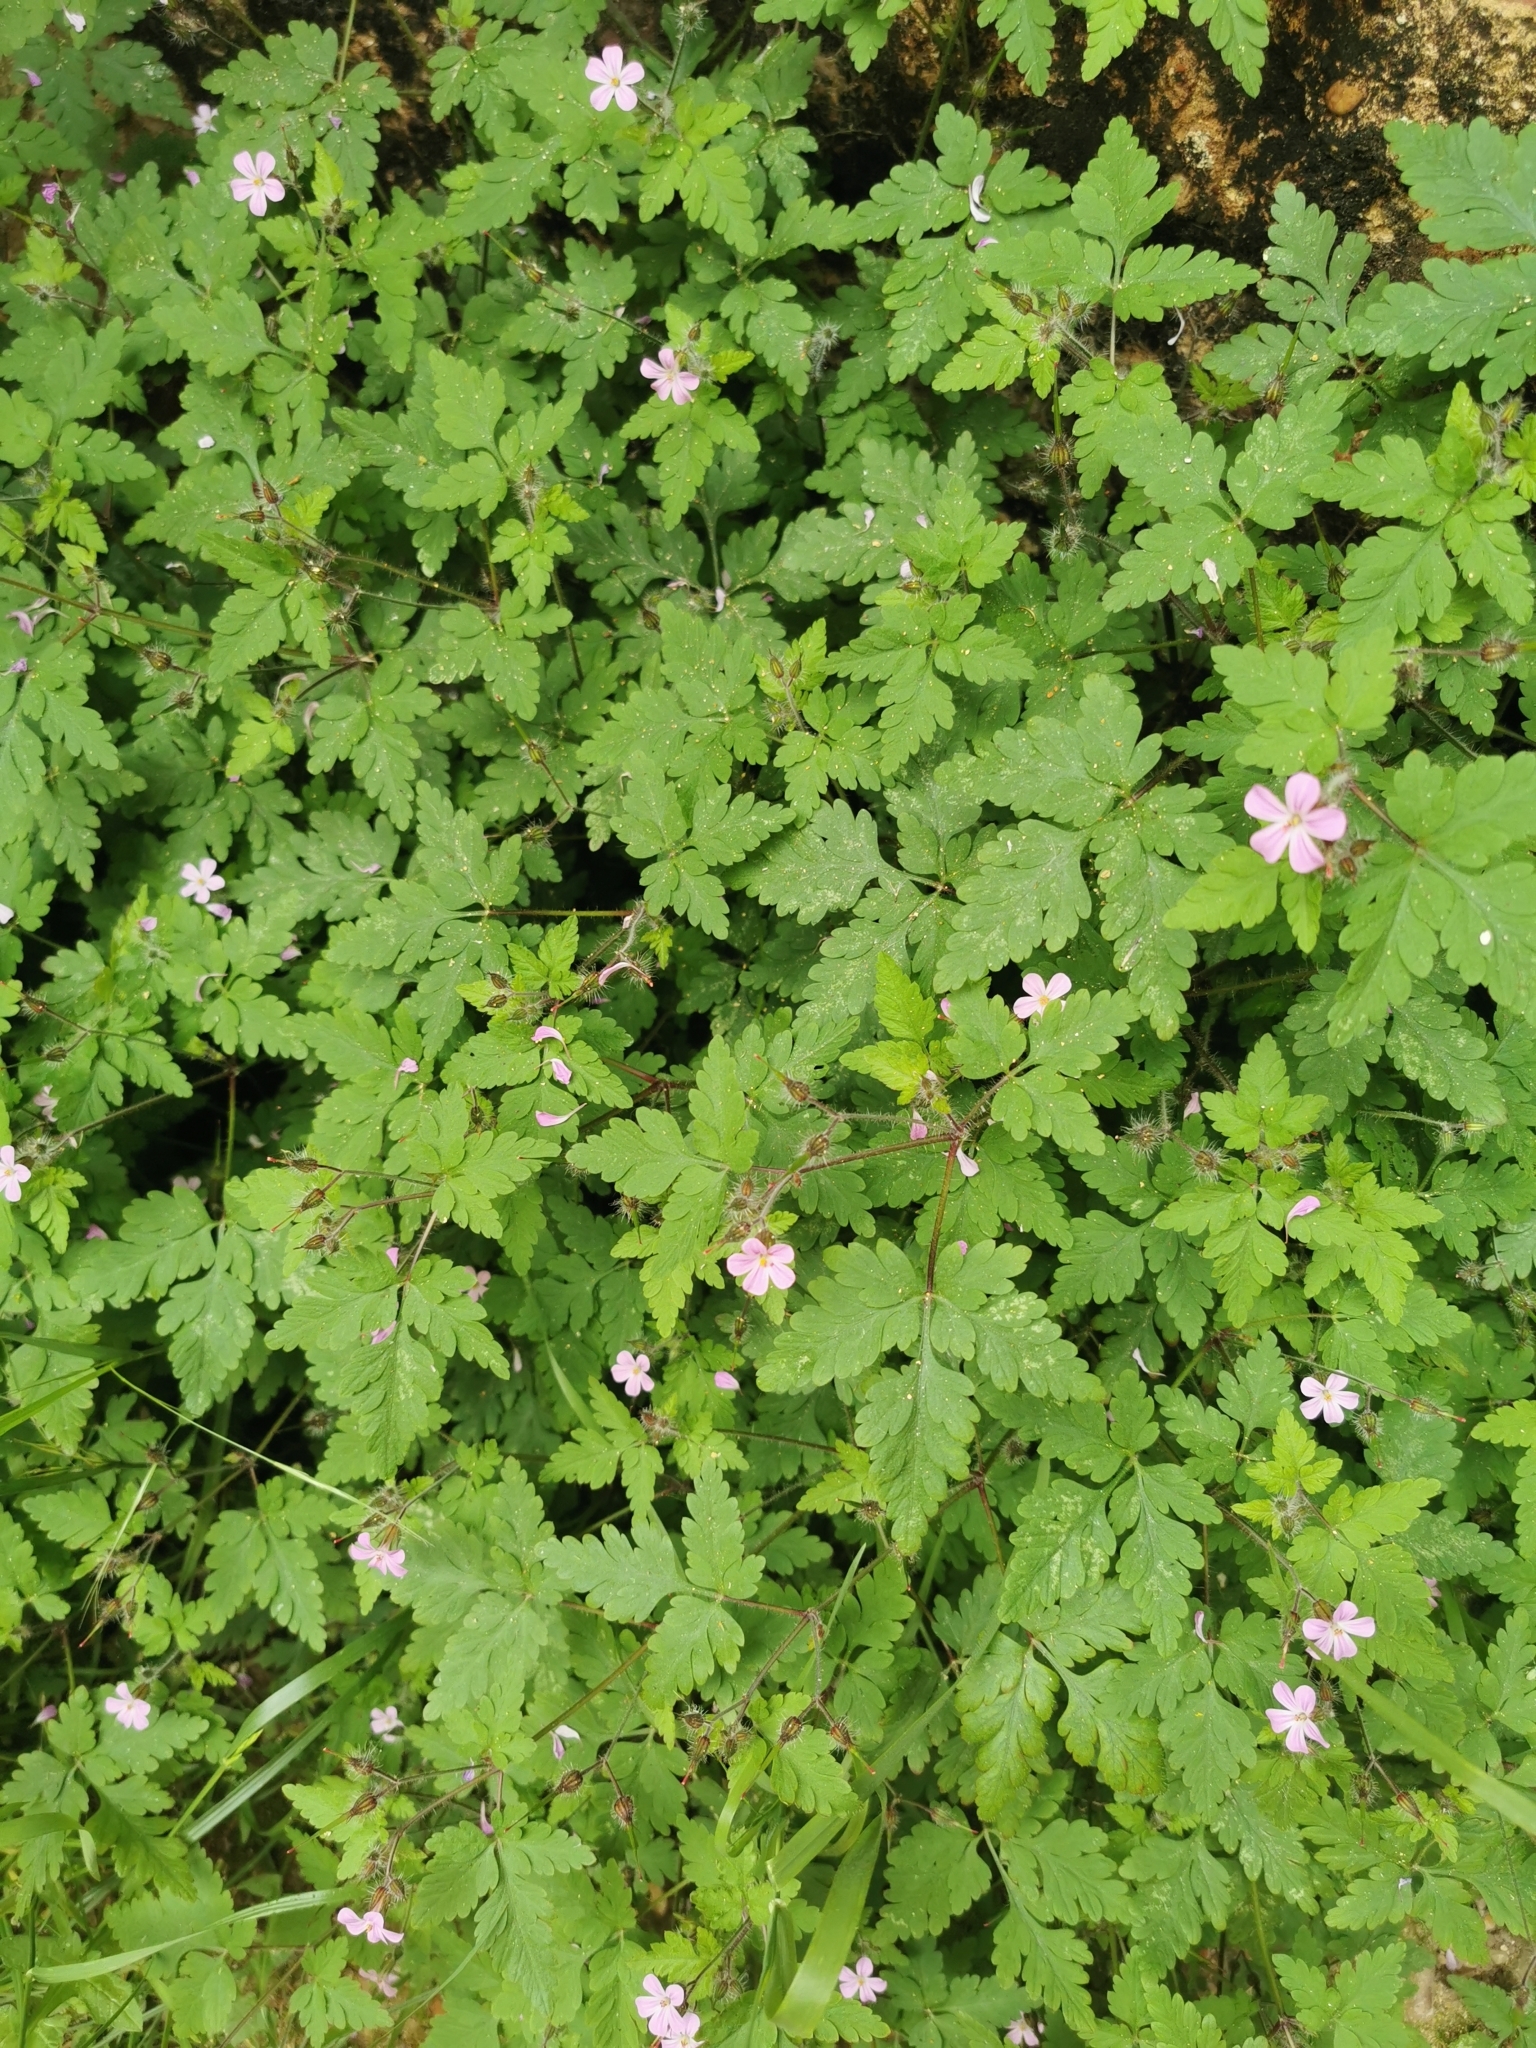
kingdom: Plantae
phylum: Tracheophyta
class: Magnoliopsida
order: Geraniales
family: Geraniaceae
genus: Geranium
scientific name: Geranium robertianum
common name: Herb-robert
